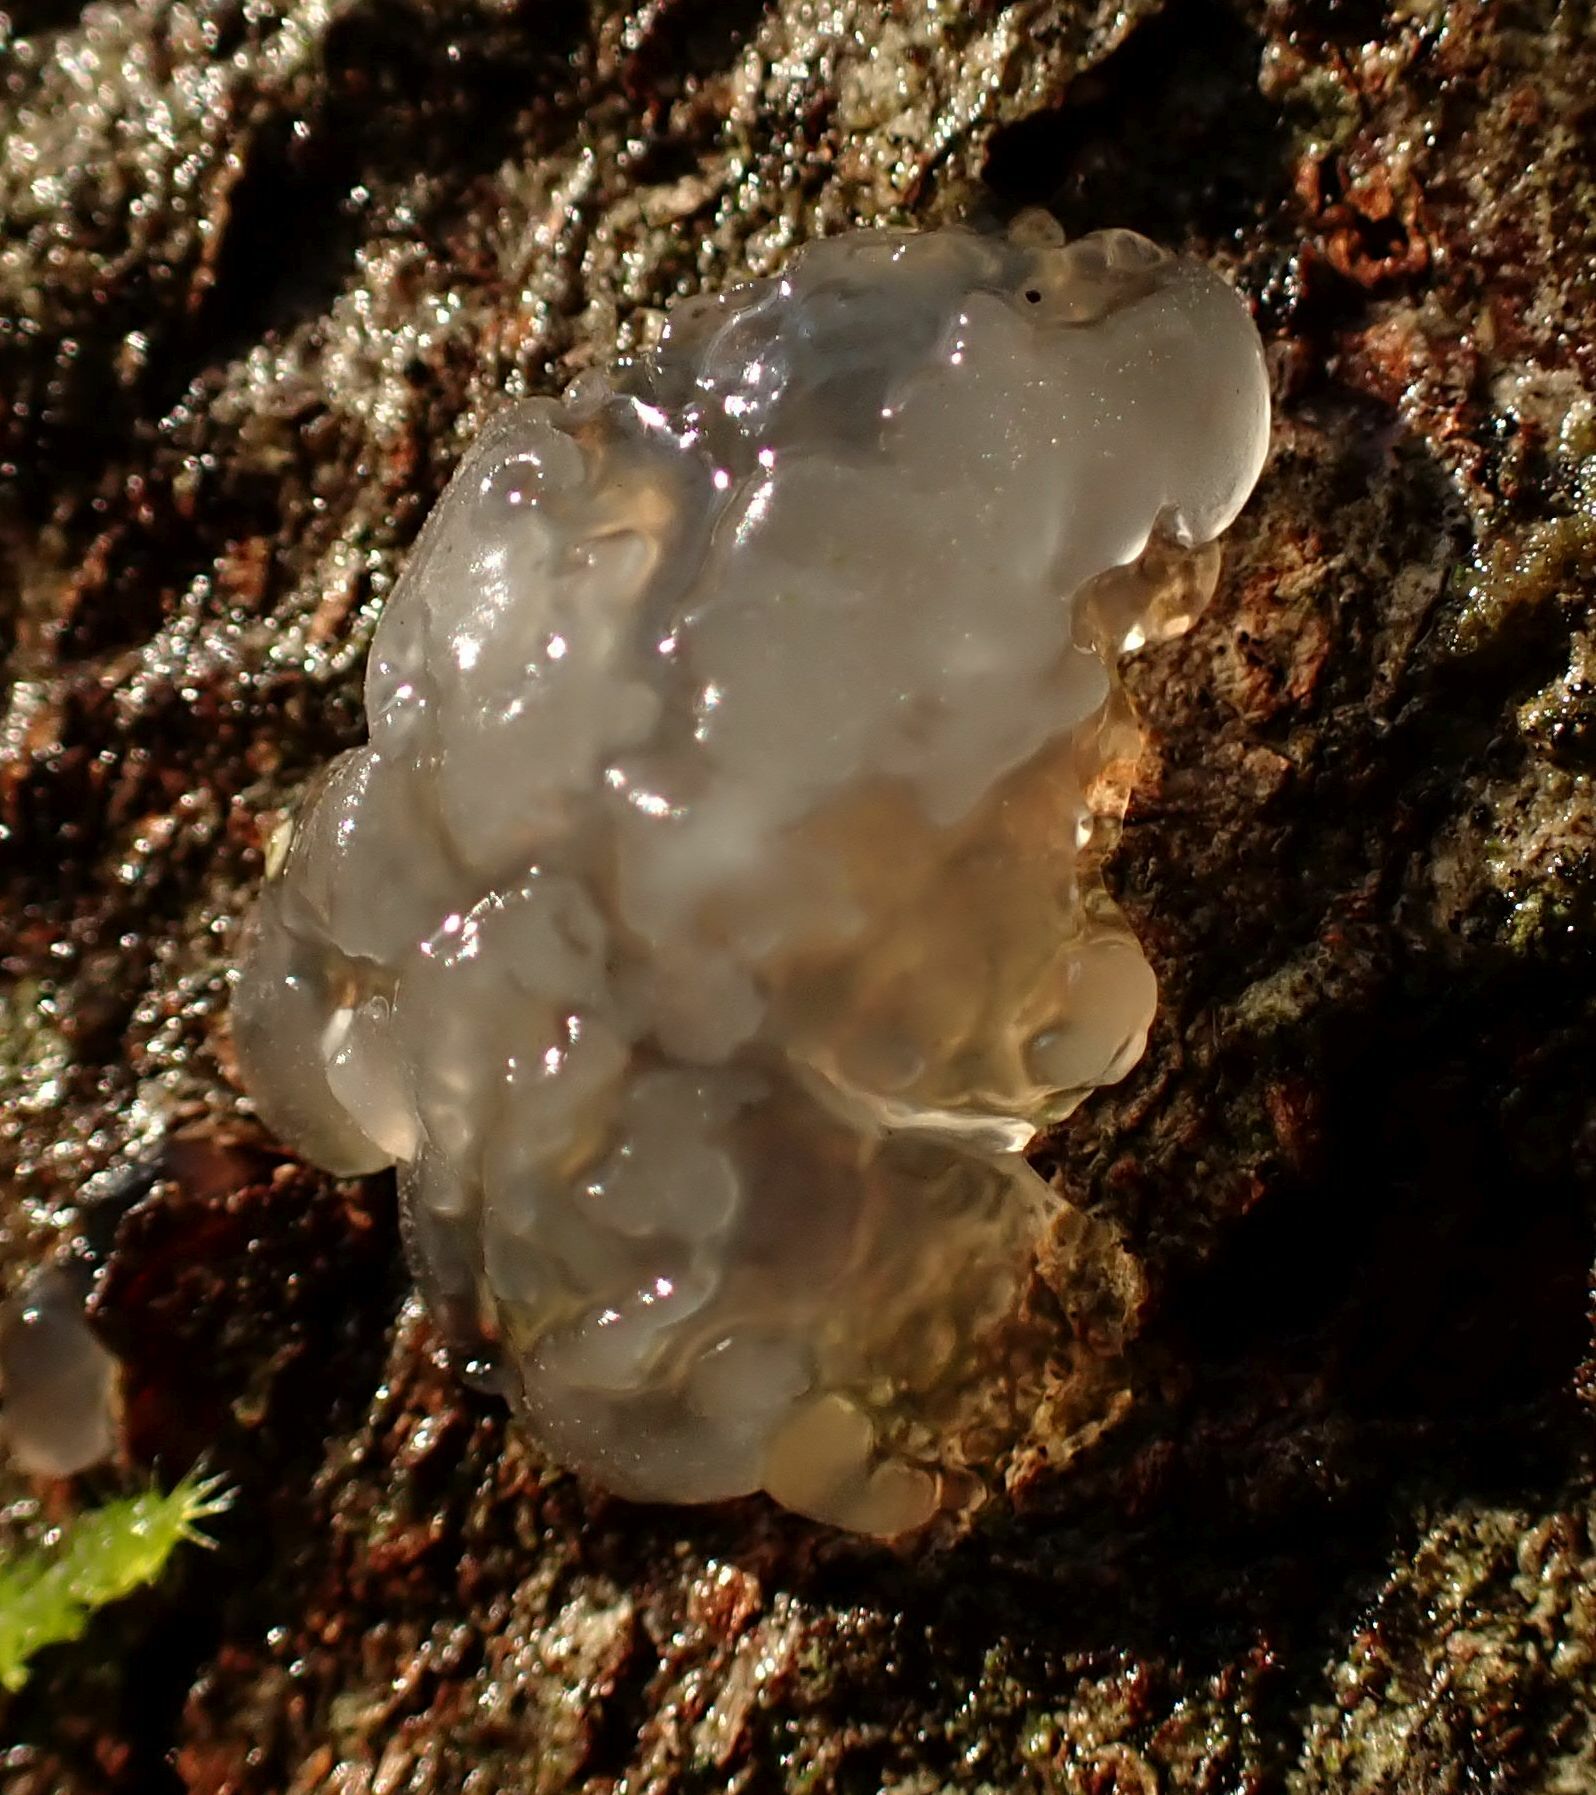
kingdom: Fungi
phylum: Basidiomycota
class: Agaricomycetes
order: Auriculariales
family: Hyaloriaceae
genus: Myxarium
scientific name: Myxarium nucleatum
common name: Crystal brain fungus
